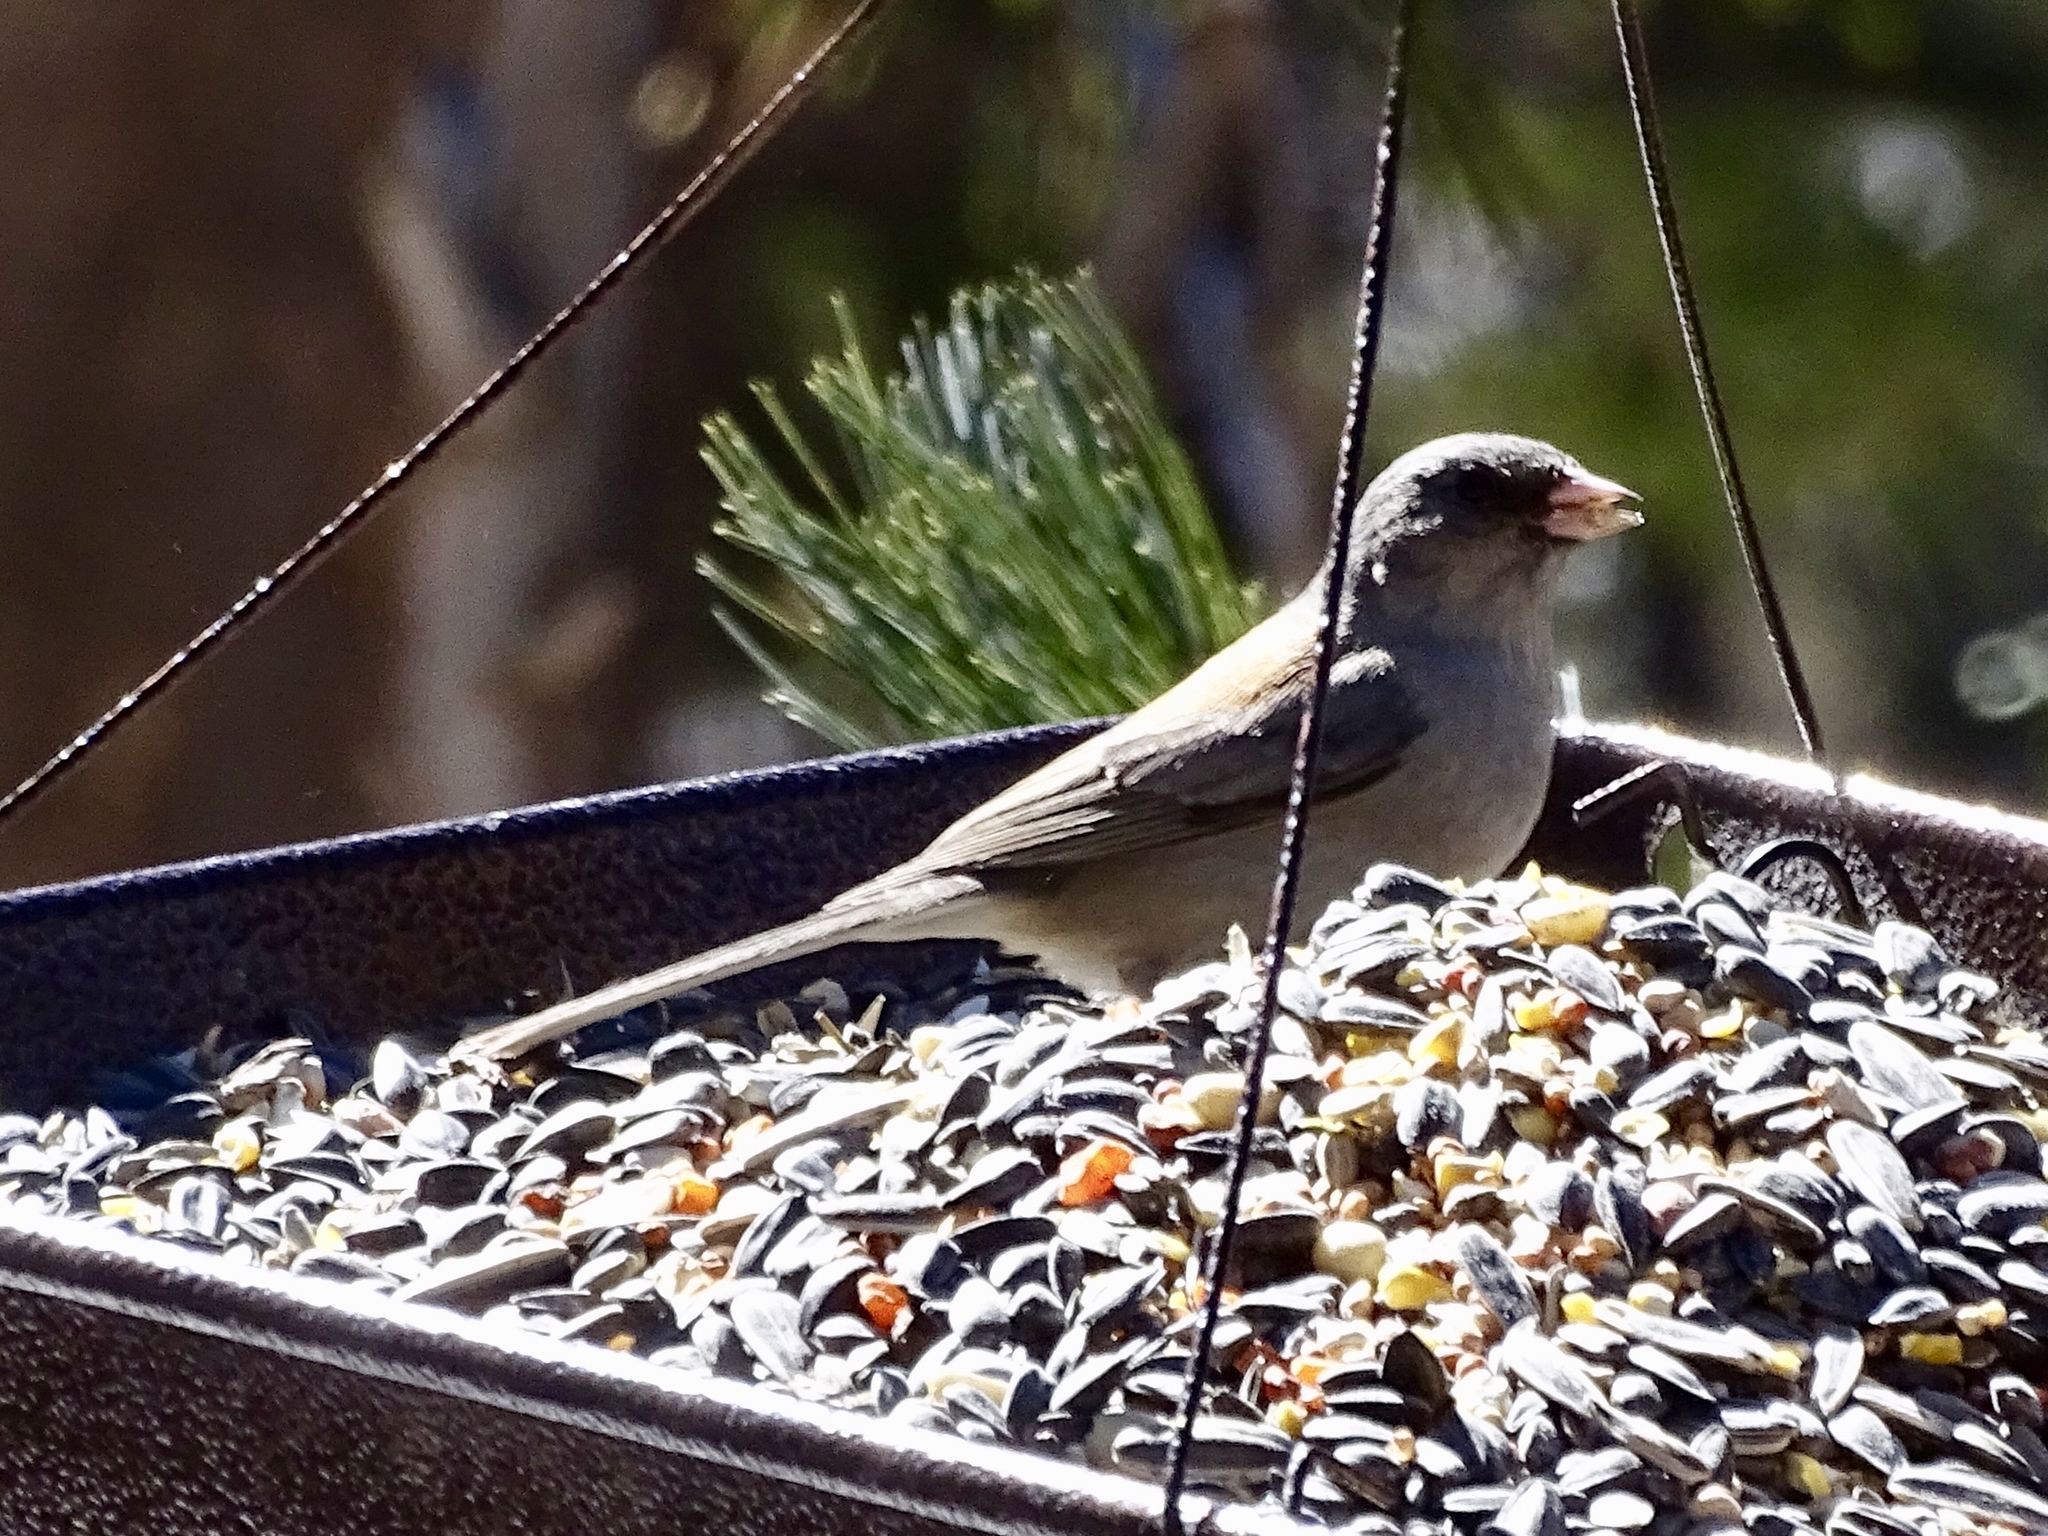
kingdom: Animalia
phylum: Chordata
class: Aves
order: Passeriformes
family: Passerellidae
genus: Junco
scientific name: Junco hyemalis
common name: Dark-eyed junco
